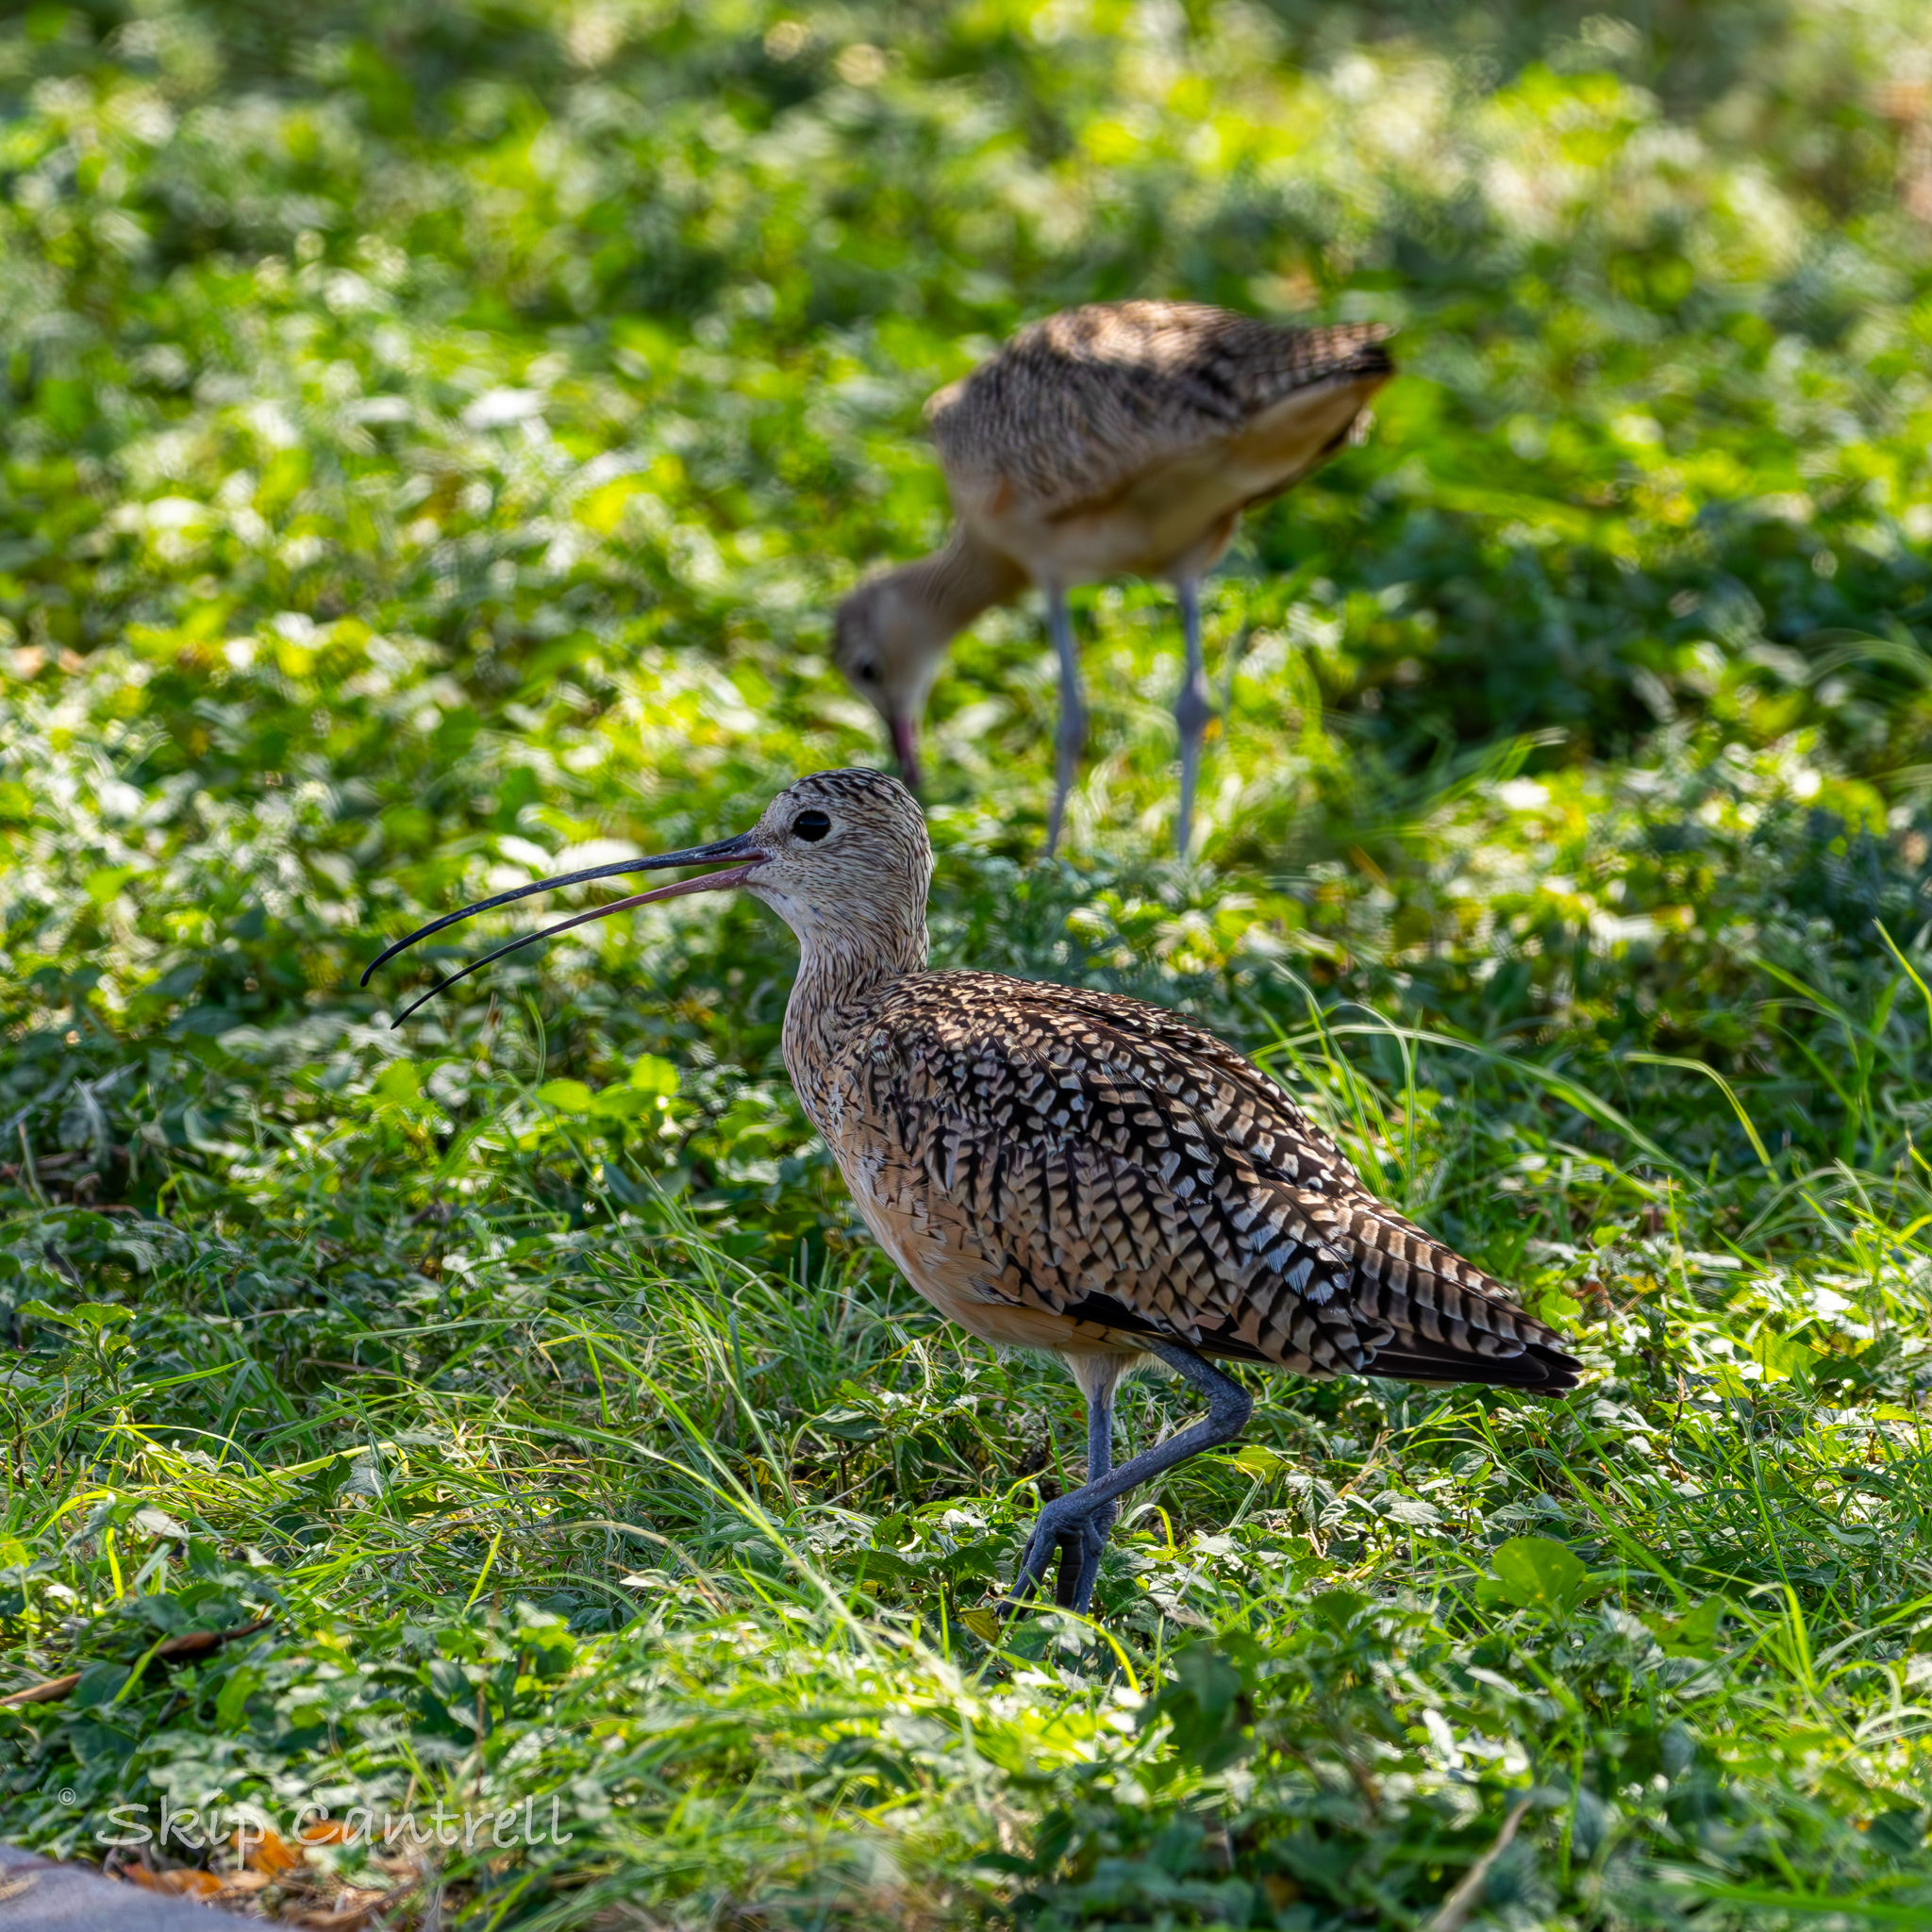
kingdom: Animalia
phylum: Chordata
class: Aves
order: Charadriiformes
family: Scolopacidae
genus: Numenius
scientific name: Numenius americanus
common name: Long-billed curlew
